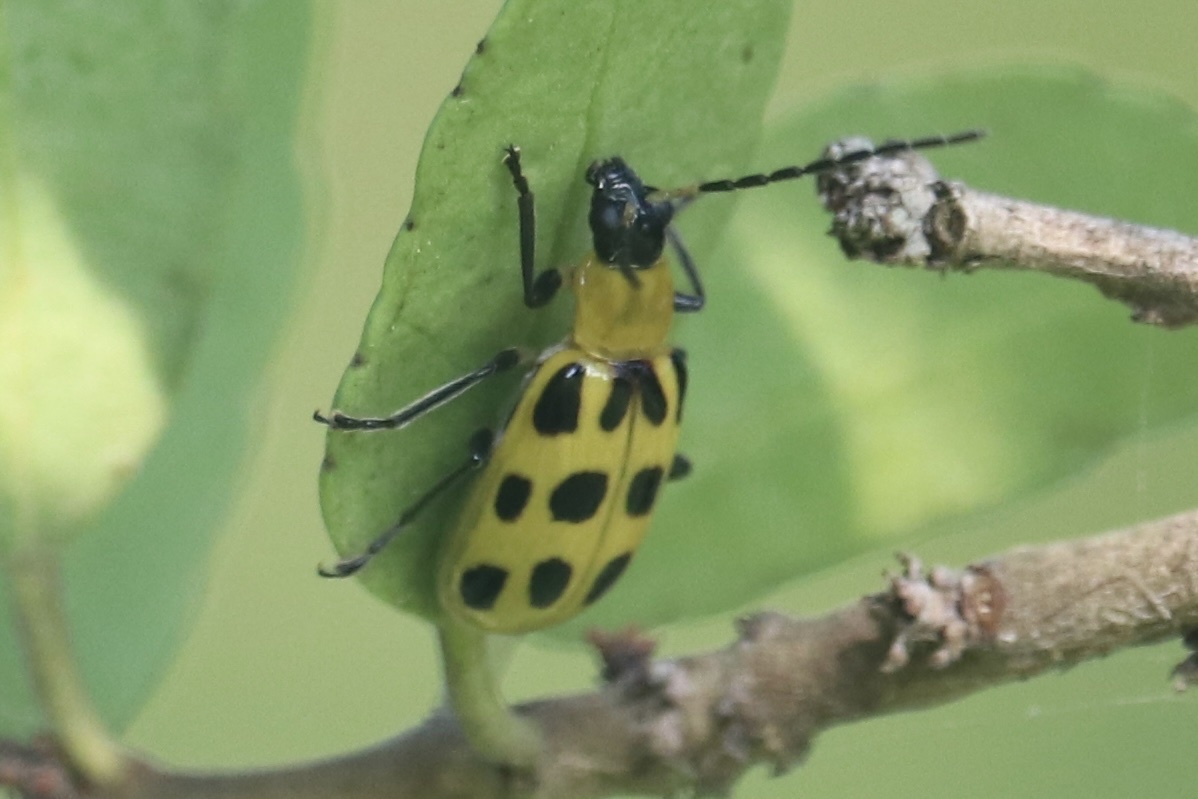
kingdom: Animalia
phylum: Arthropoda
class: Insecta
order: Coleoptera
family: Chrysomelidae
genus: Diabrotica
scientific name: Diabrotica undecimpunctata
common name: Spotted cucumber beetle
